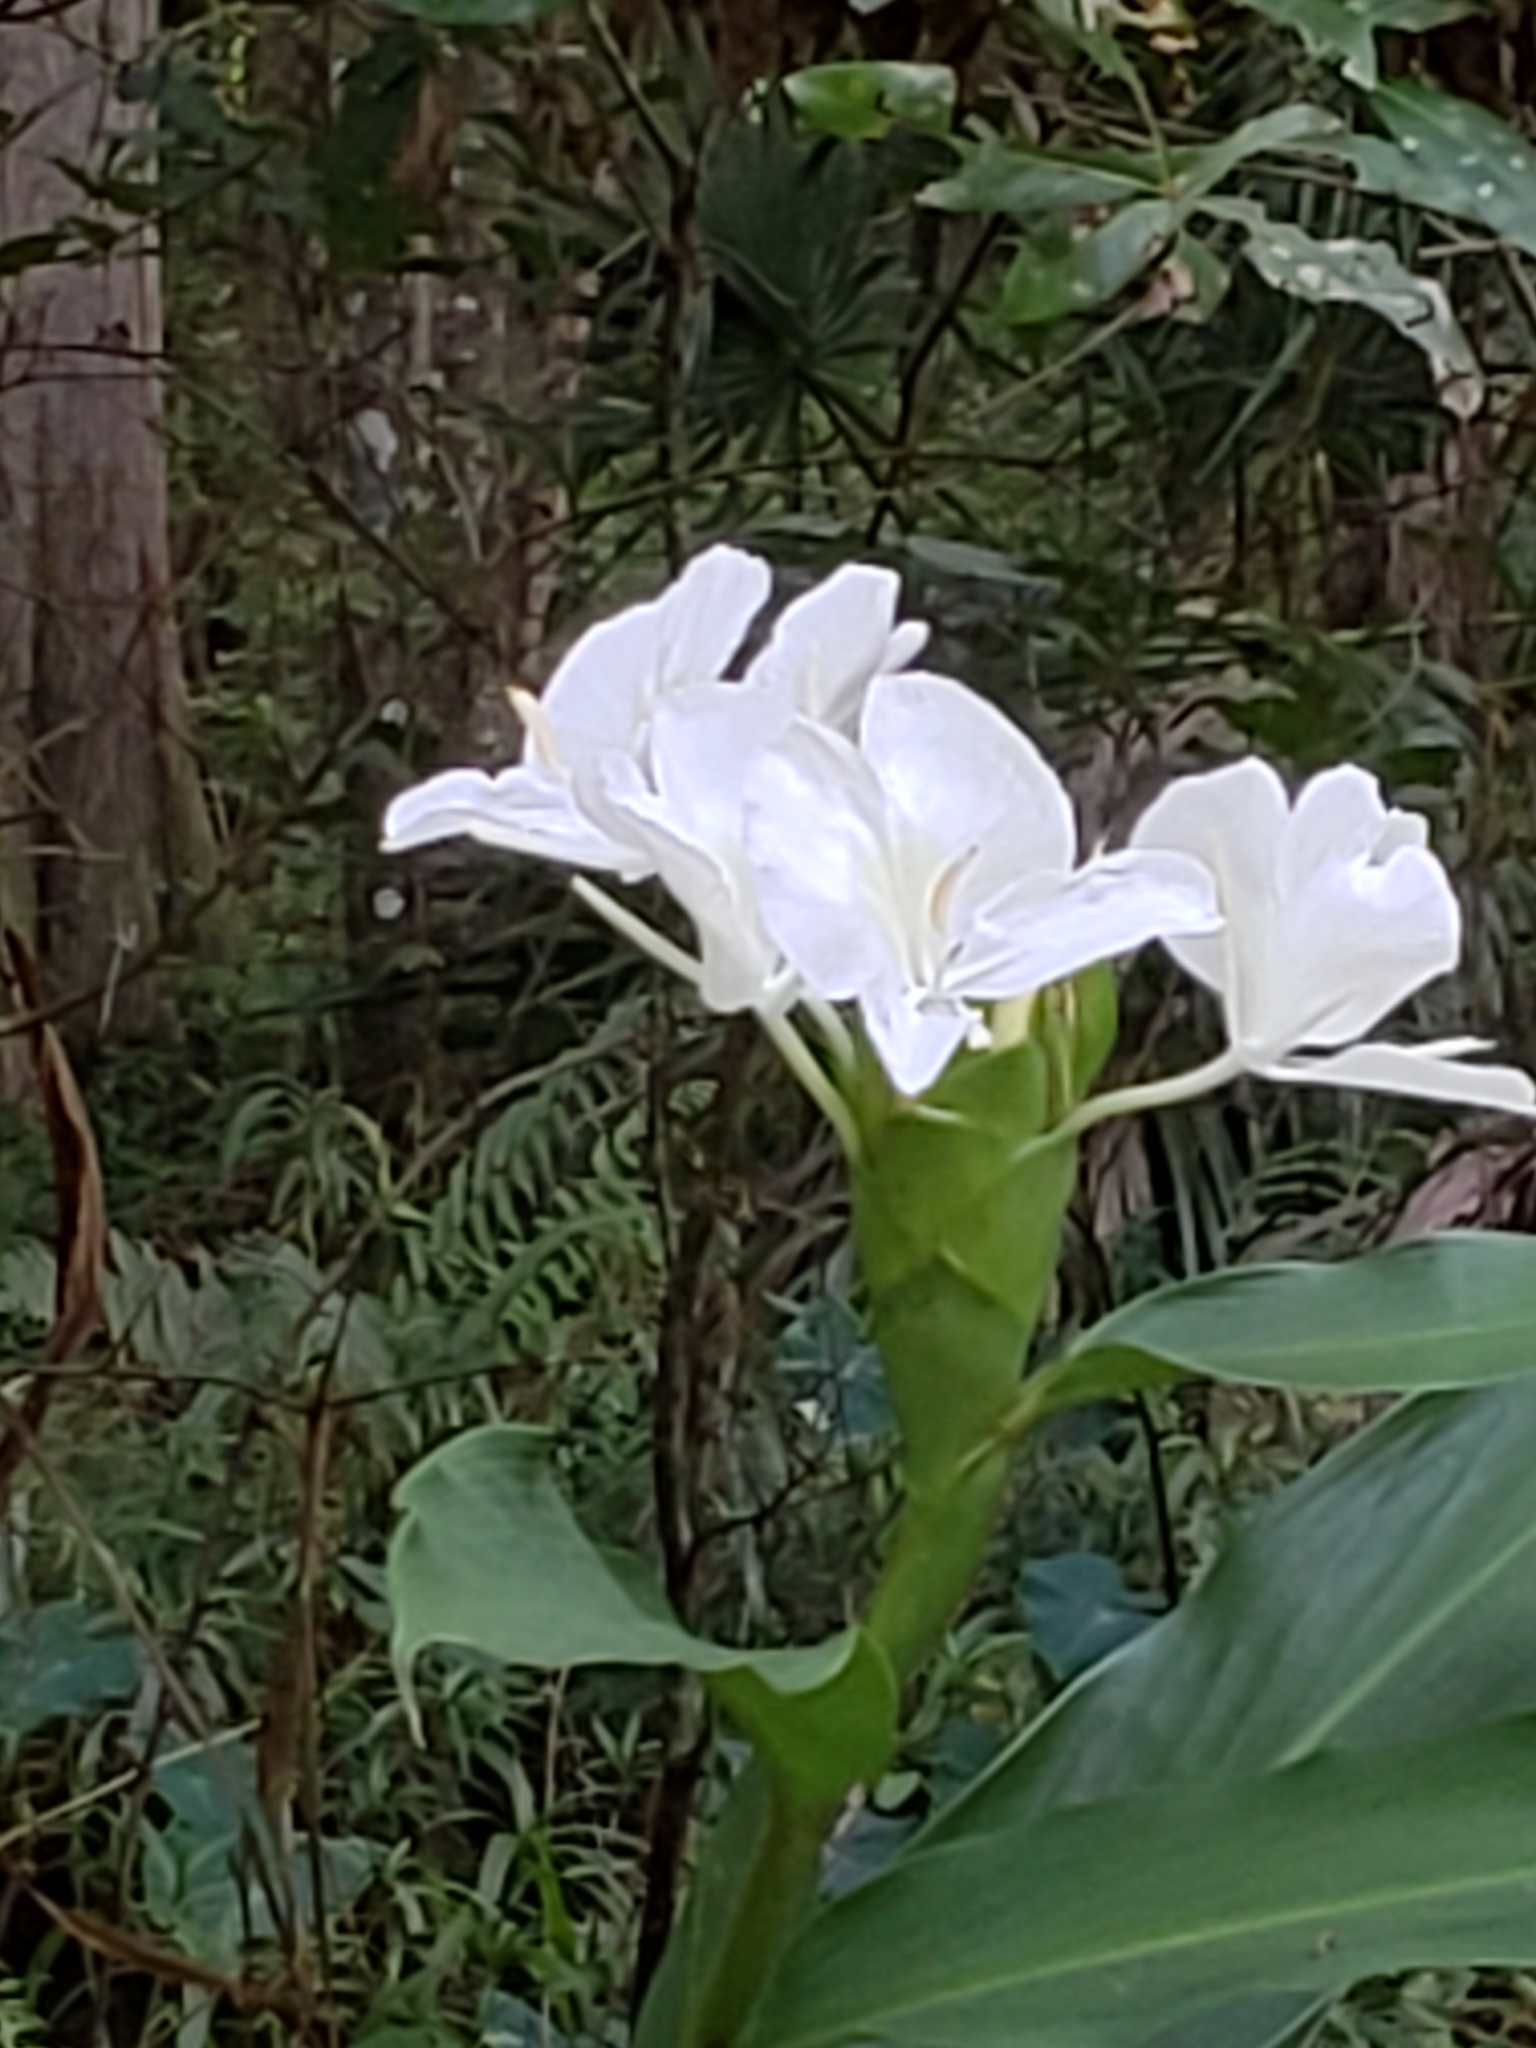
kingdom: Plantae
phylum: Tracheophyta
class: Liliopsida
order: Zingiberales
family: Zingiberaceae
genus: Hedychium
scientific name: Hedychium coronarium
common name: White garland-lily
